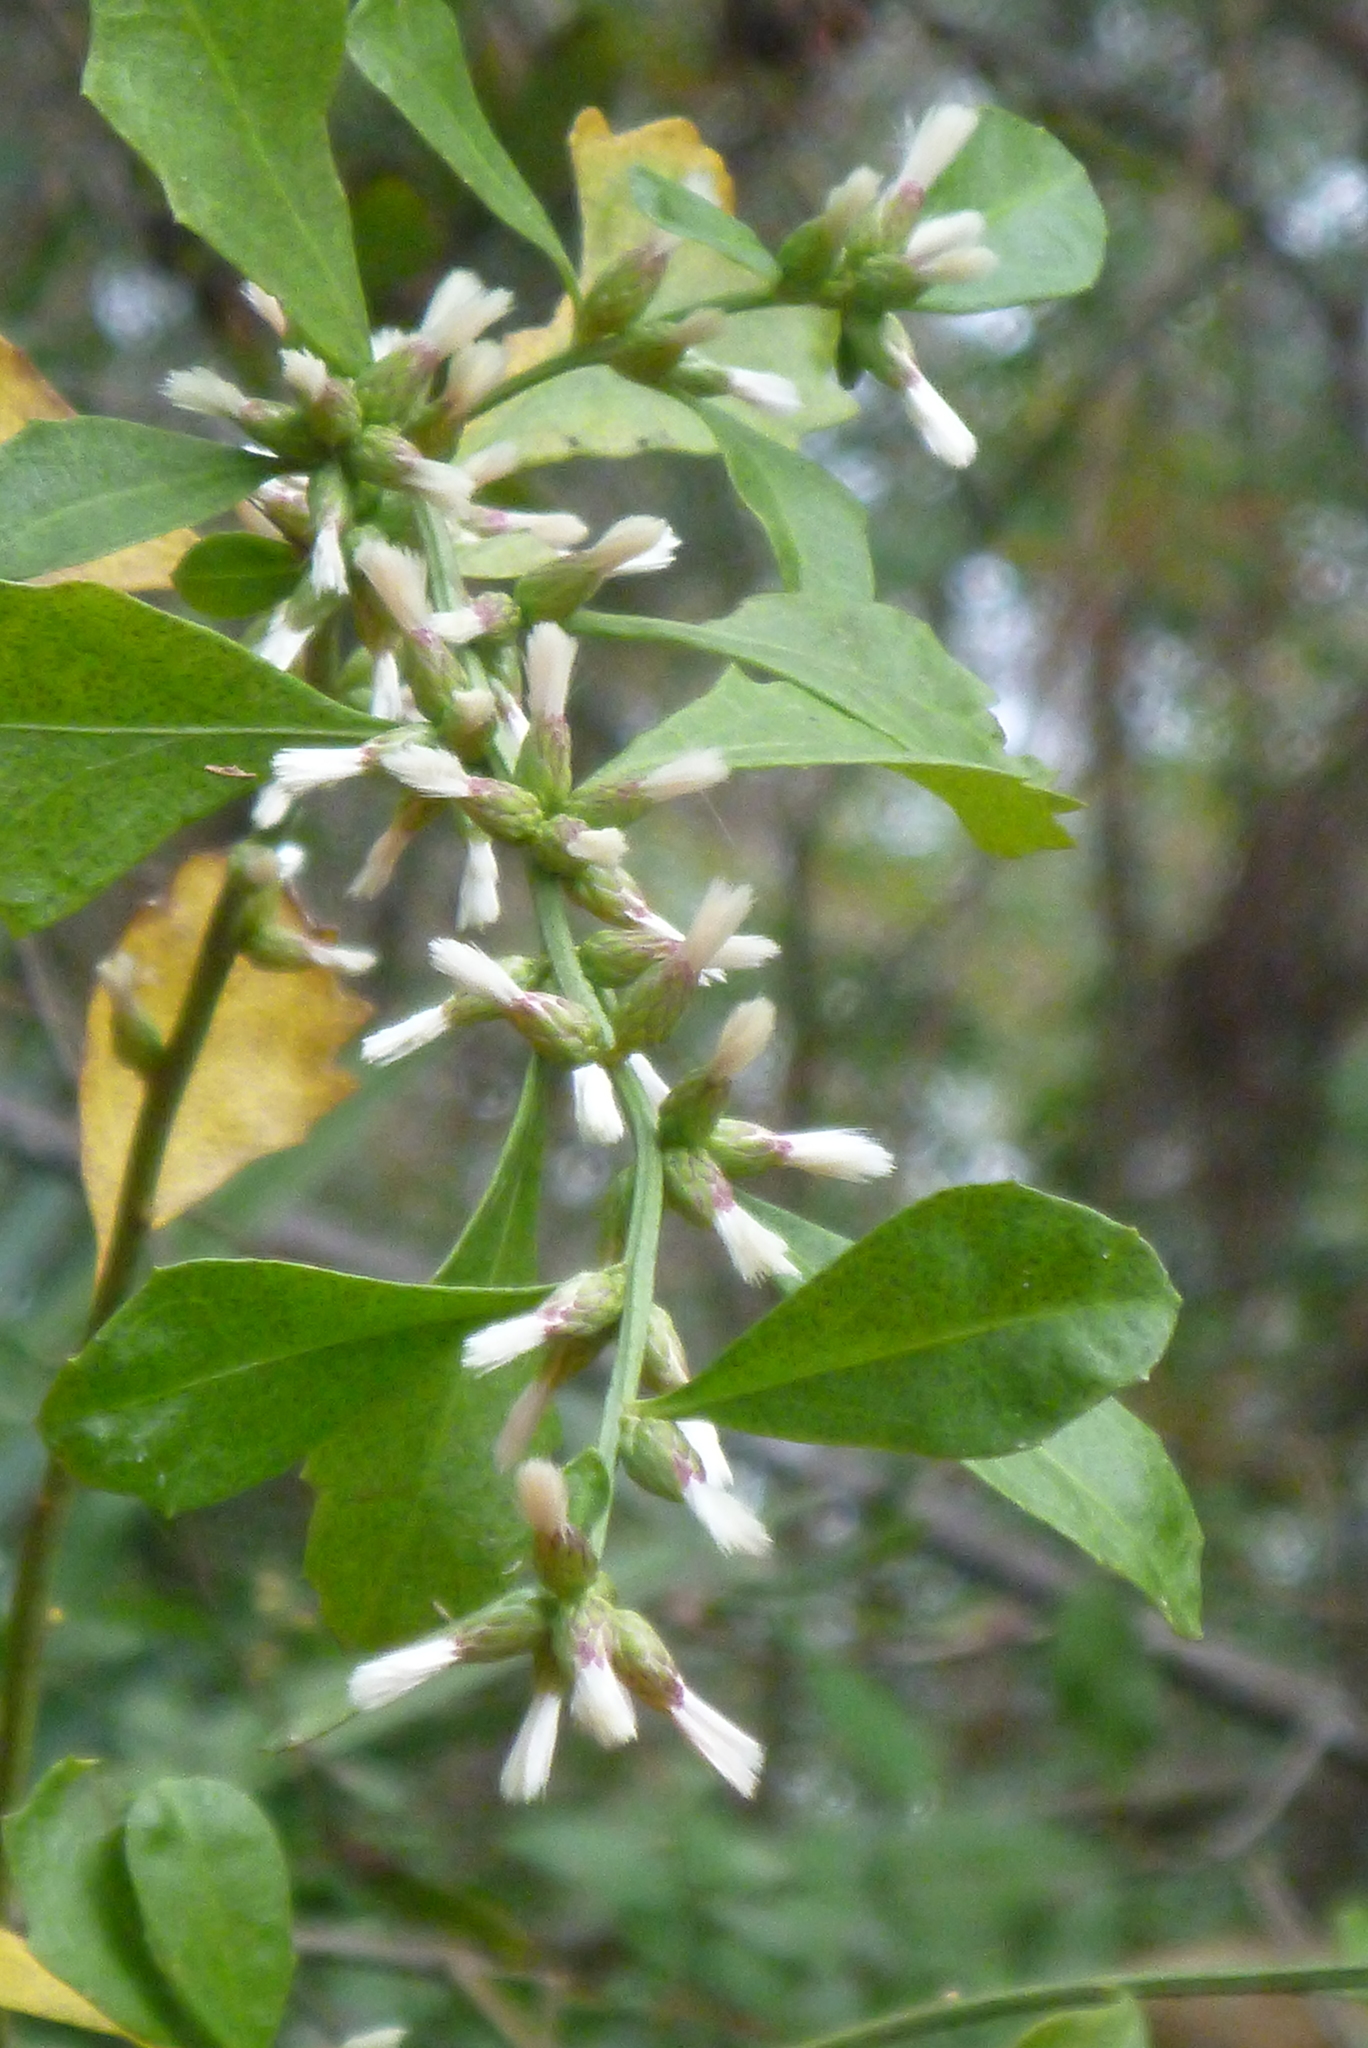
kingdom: Plantae
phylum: Tracheophyta
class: Magnoliopsida
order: Asterales
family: Asteraceae
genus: Baccharis
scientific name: Baccharis glomeruliflora
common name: Silverling groundsel bush
